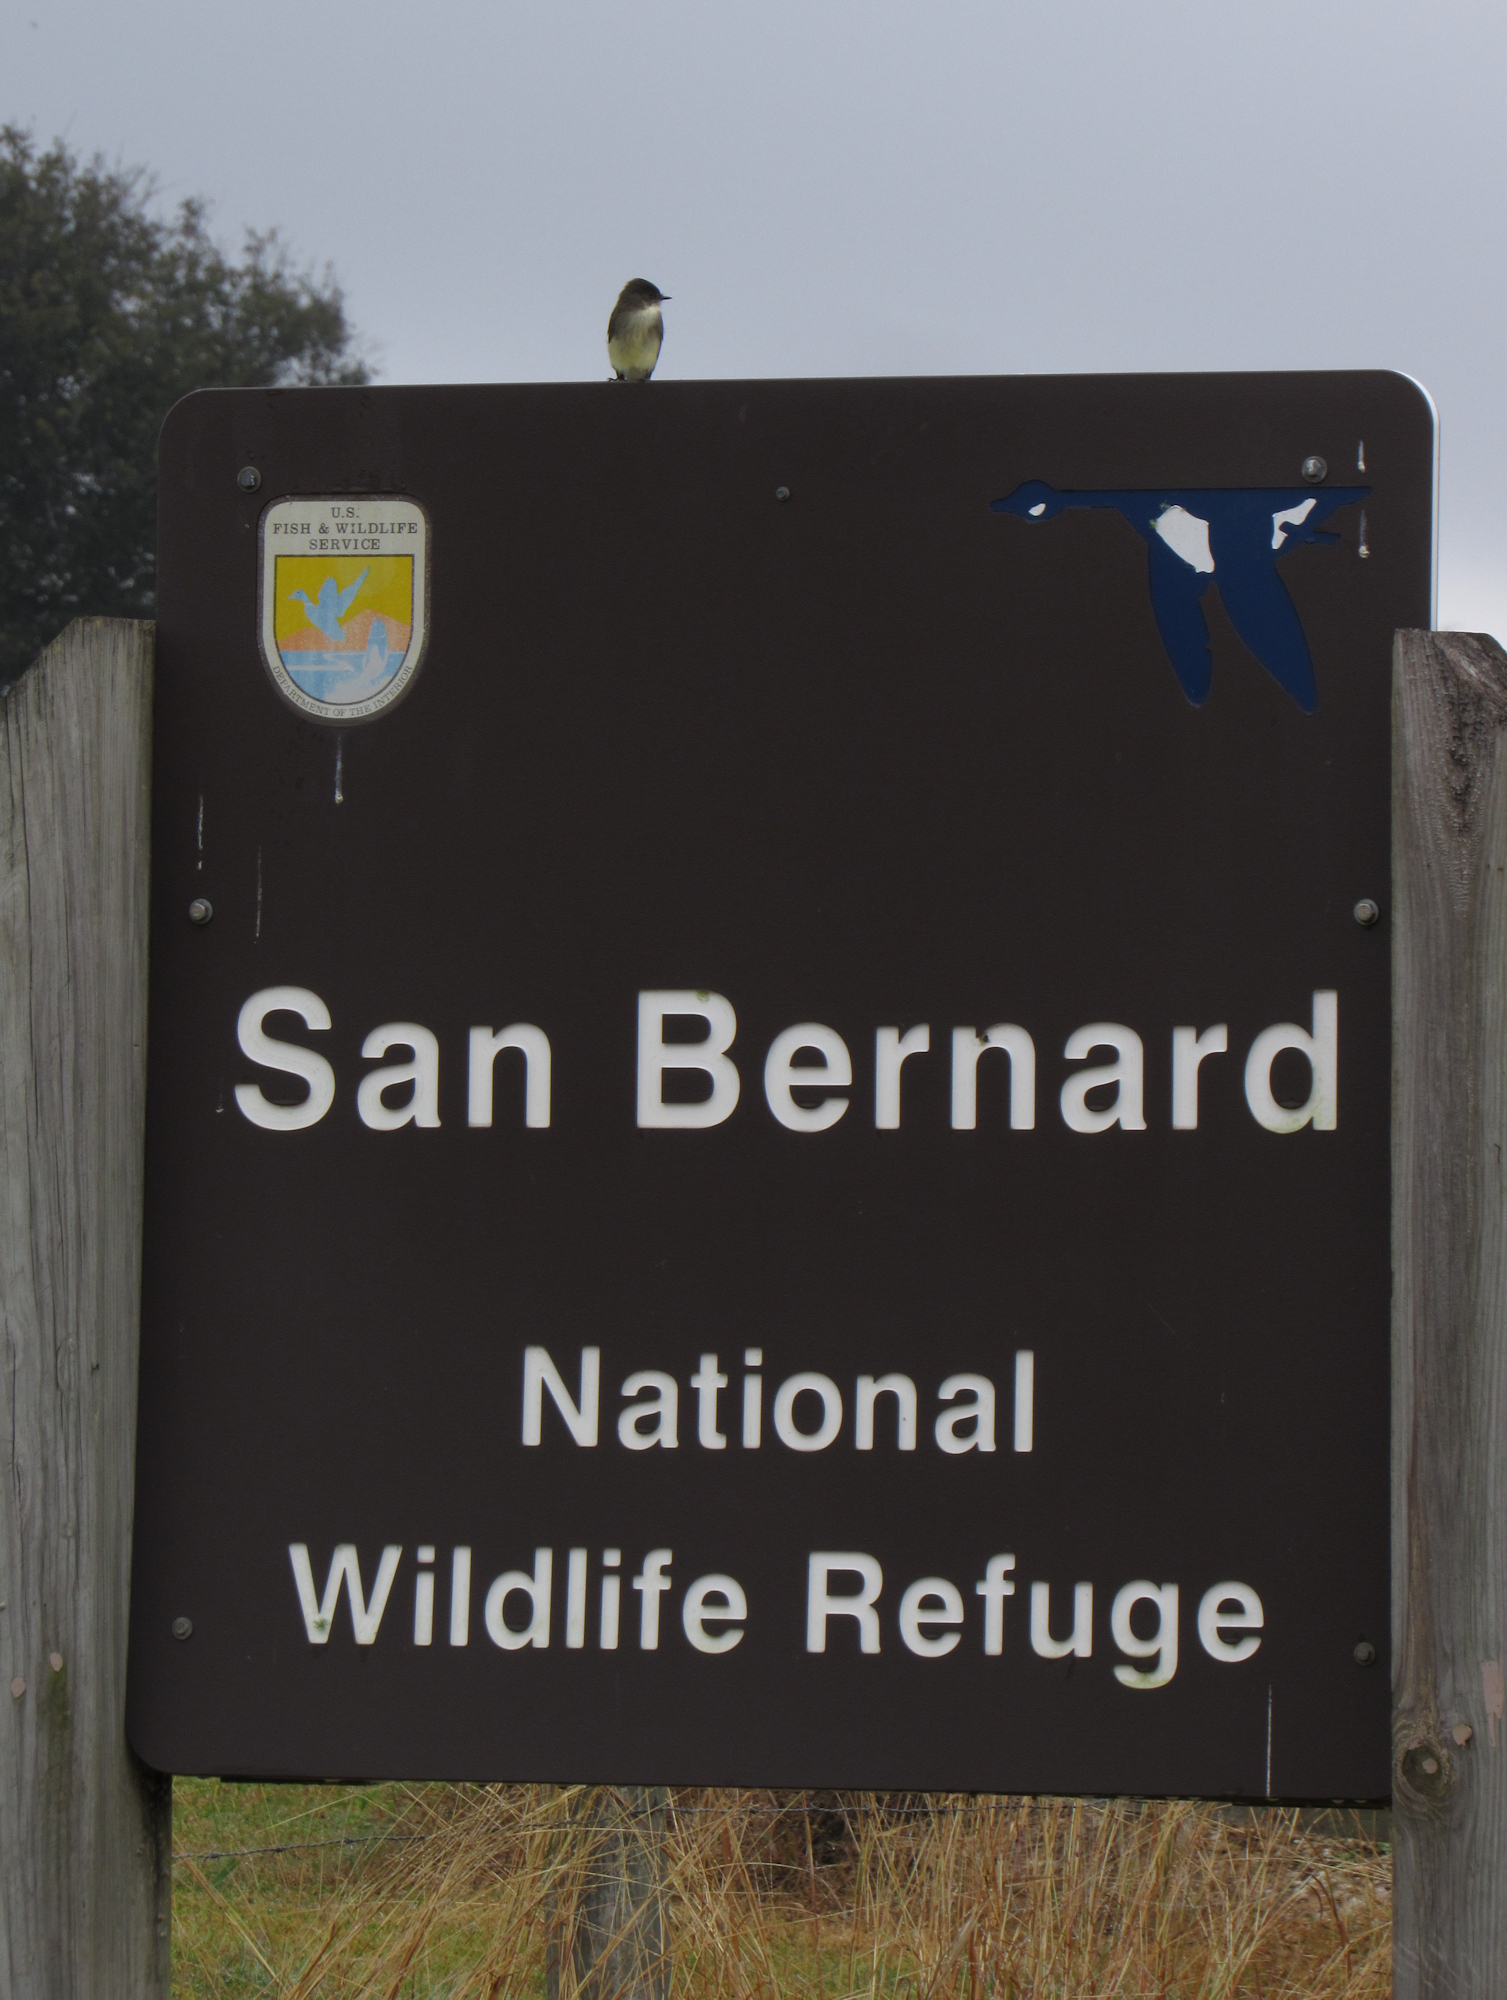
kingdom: Animalia
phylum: Chordata
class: Aves
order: Passeriformes
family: Tyrannidae
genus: Sayornis
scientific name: Sayornis phoebe
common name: Eastern phoebe
